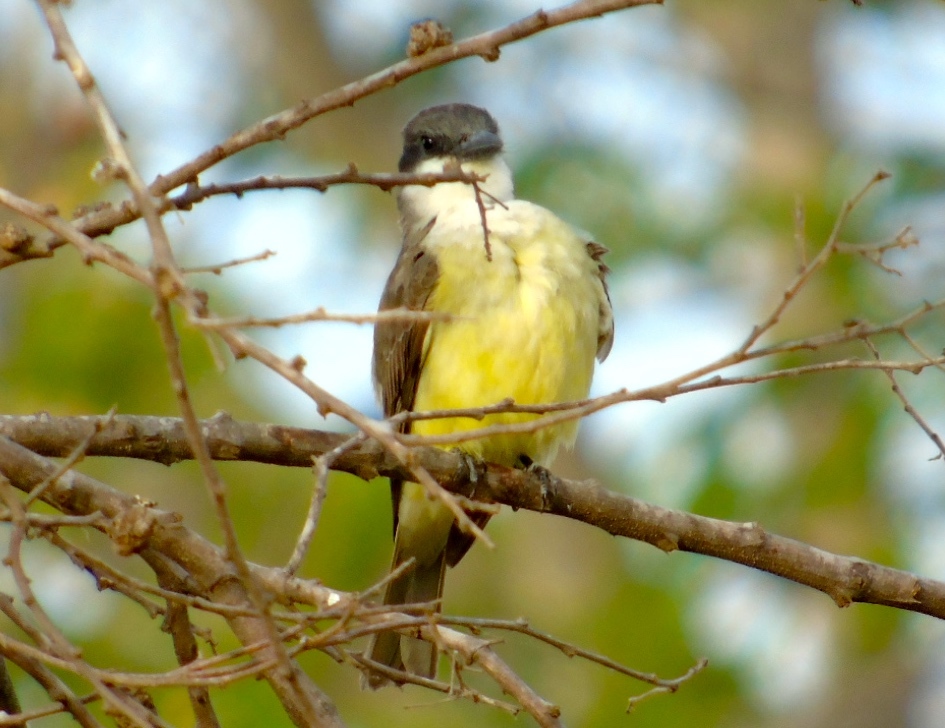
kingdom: Animalia
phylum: Chordata
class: Aves
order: Passeriformes
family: Tyrannidae
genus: Tyrannus
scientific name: Tyrannus crassirostris
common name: Thick-billed kingbird
